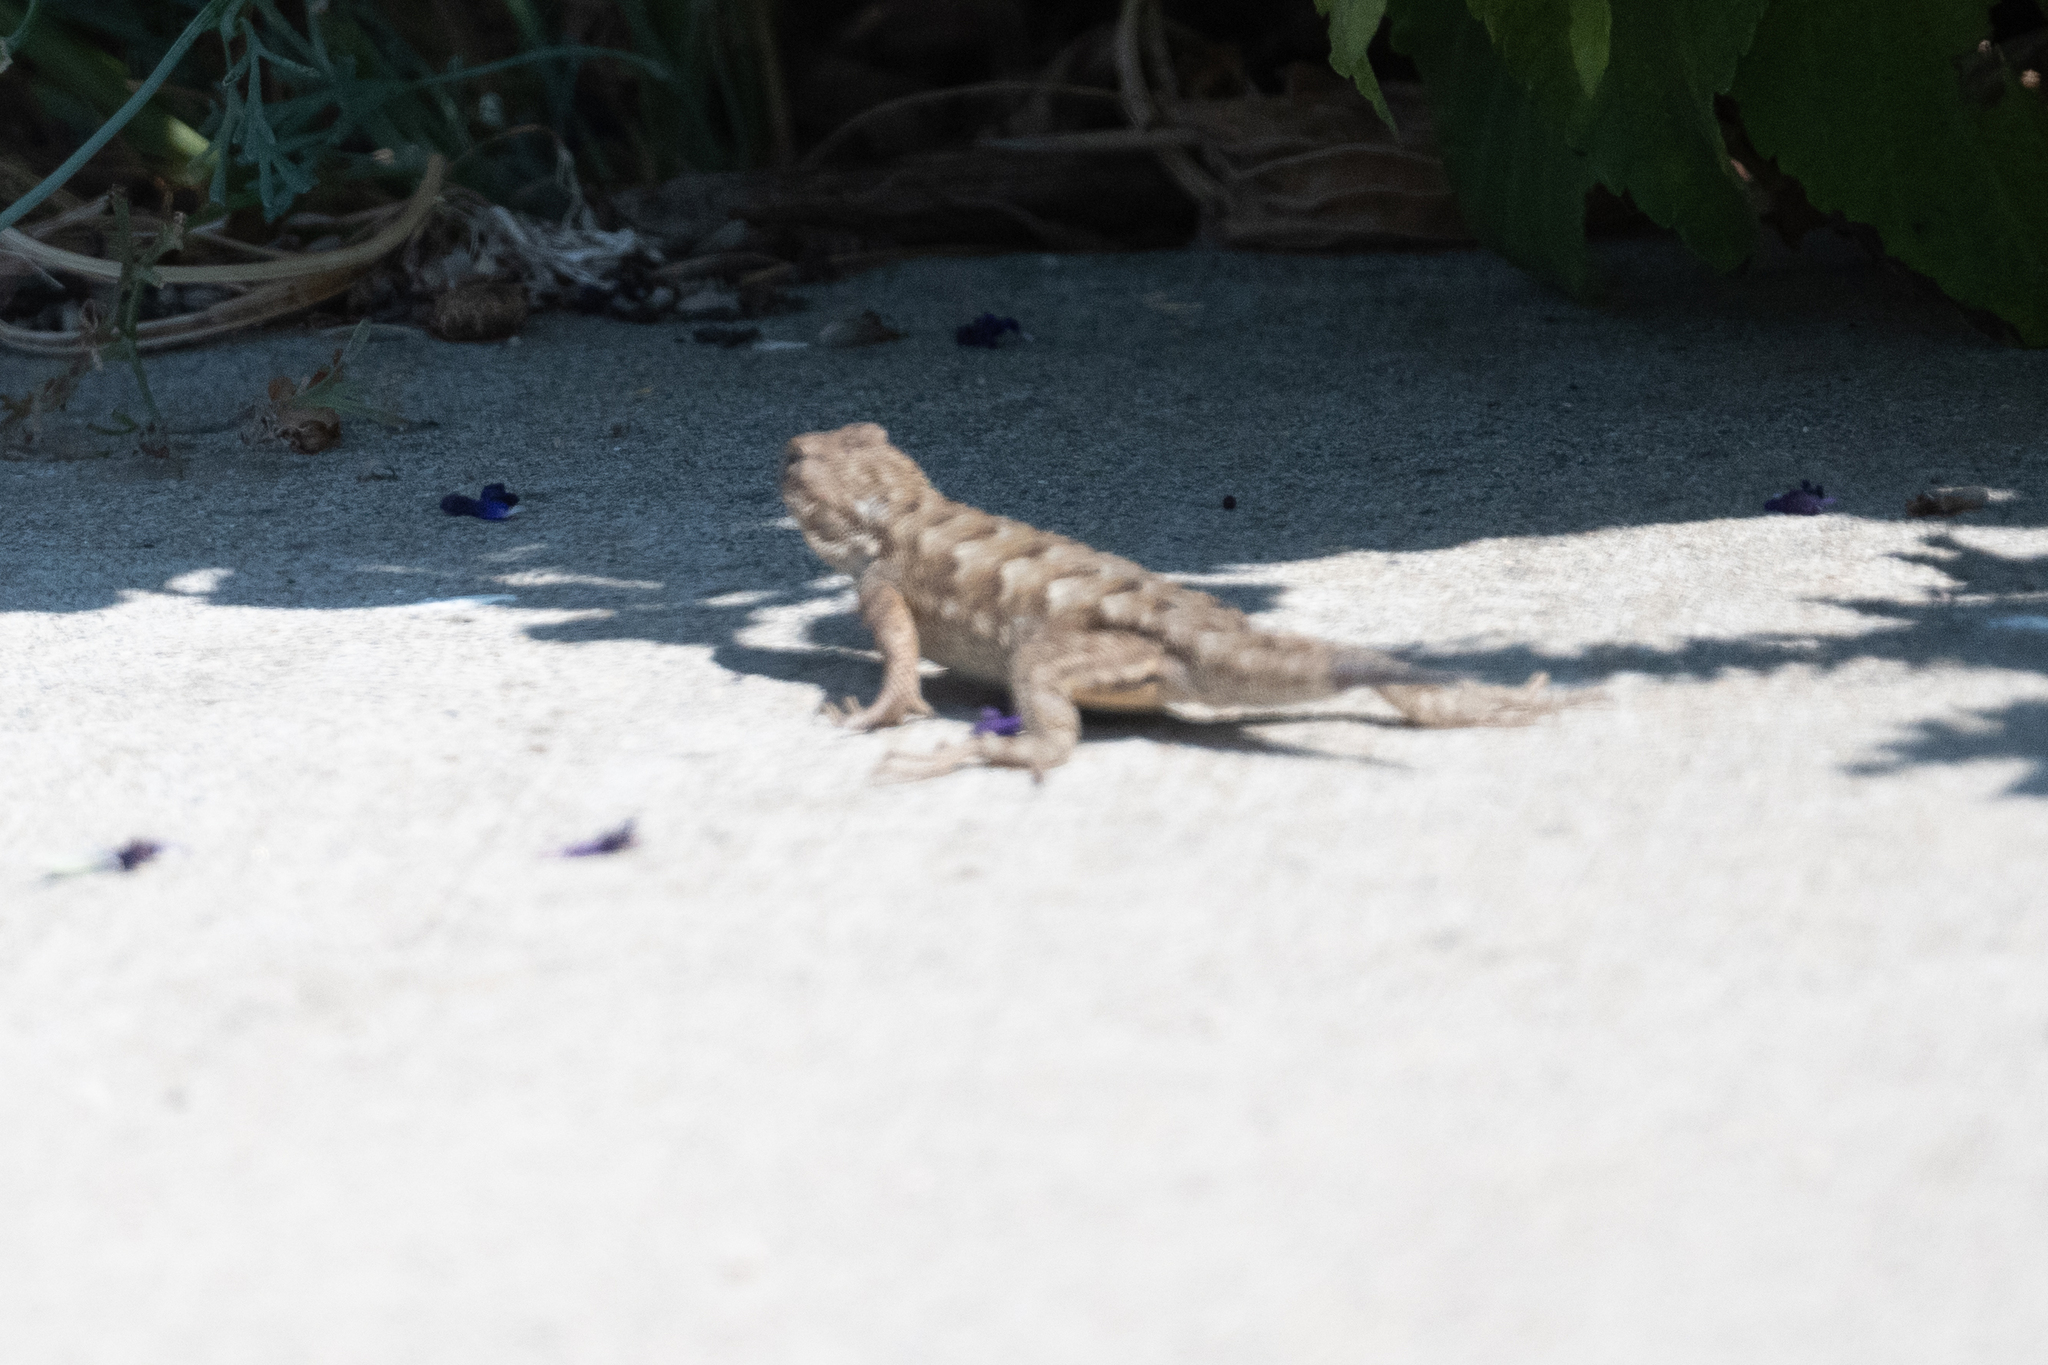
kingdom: Animalia
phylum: Chordata
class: Squamata
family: Phrynosomatidae
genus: Sceloporus
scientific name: Sceloporus occidentalis
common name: Western fence lizard
